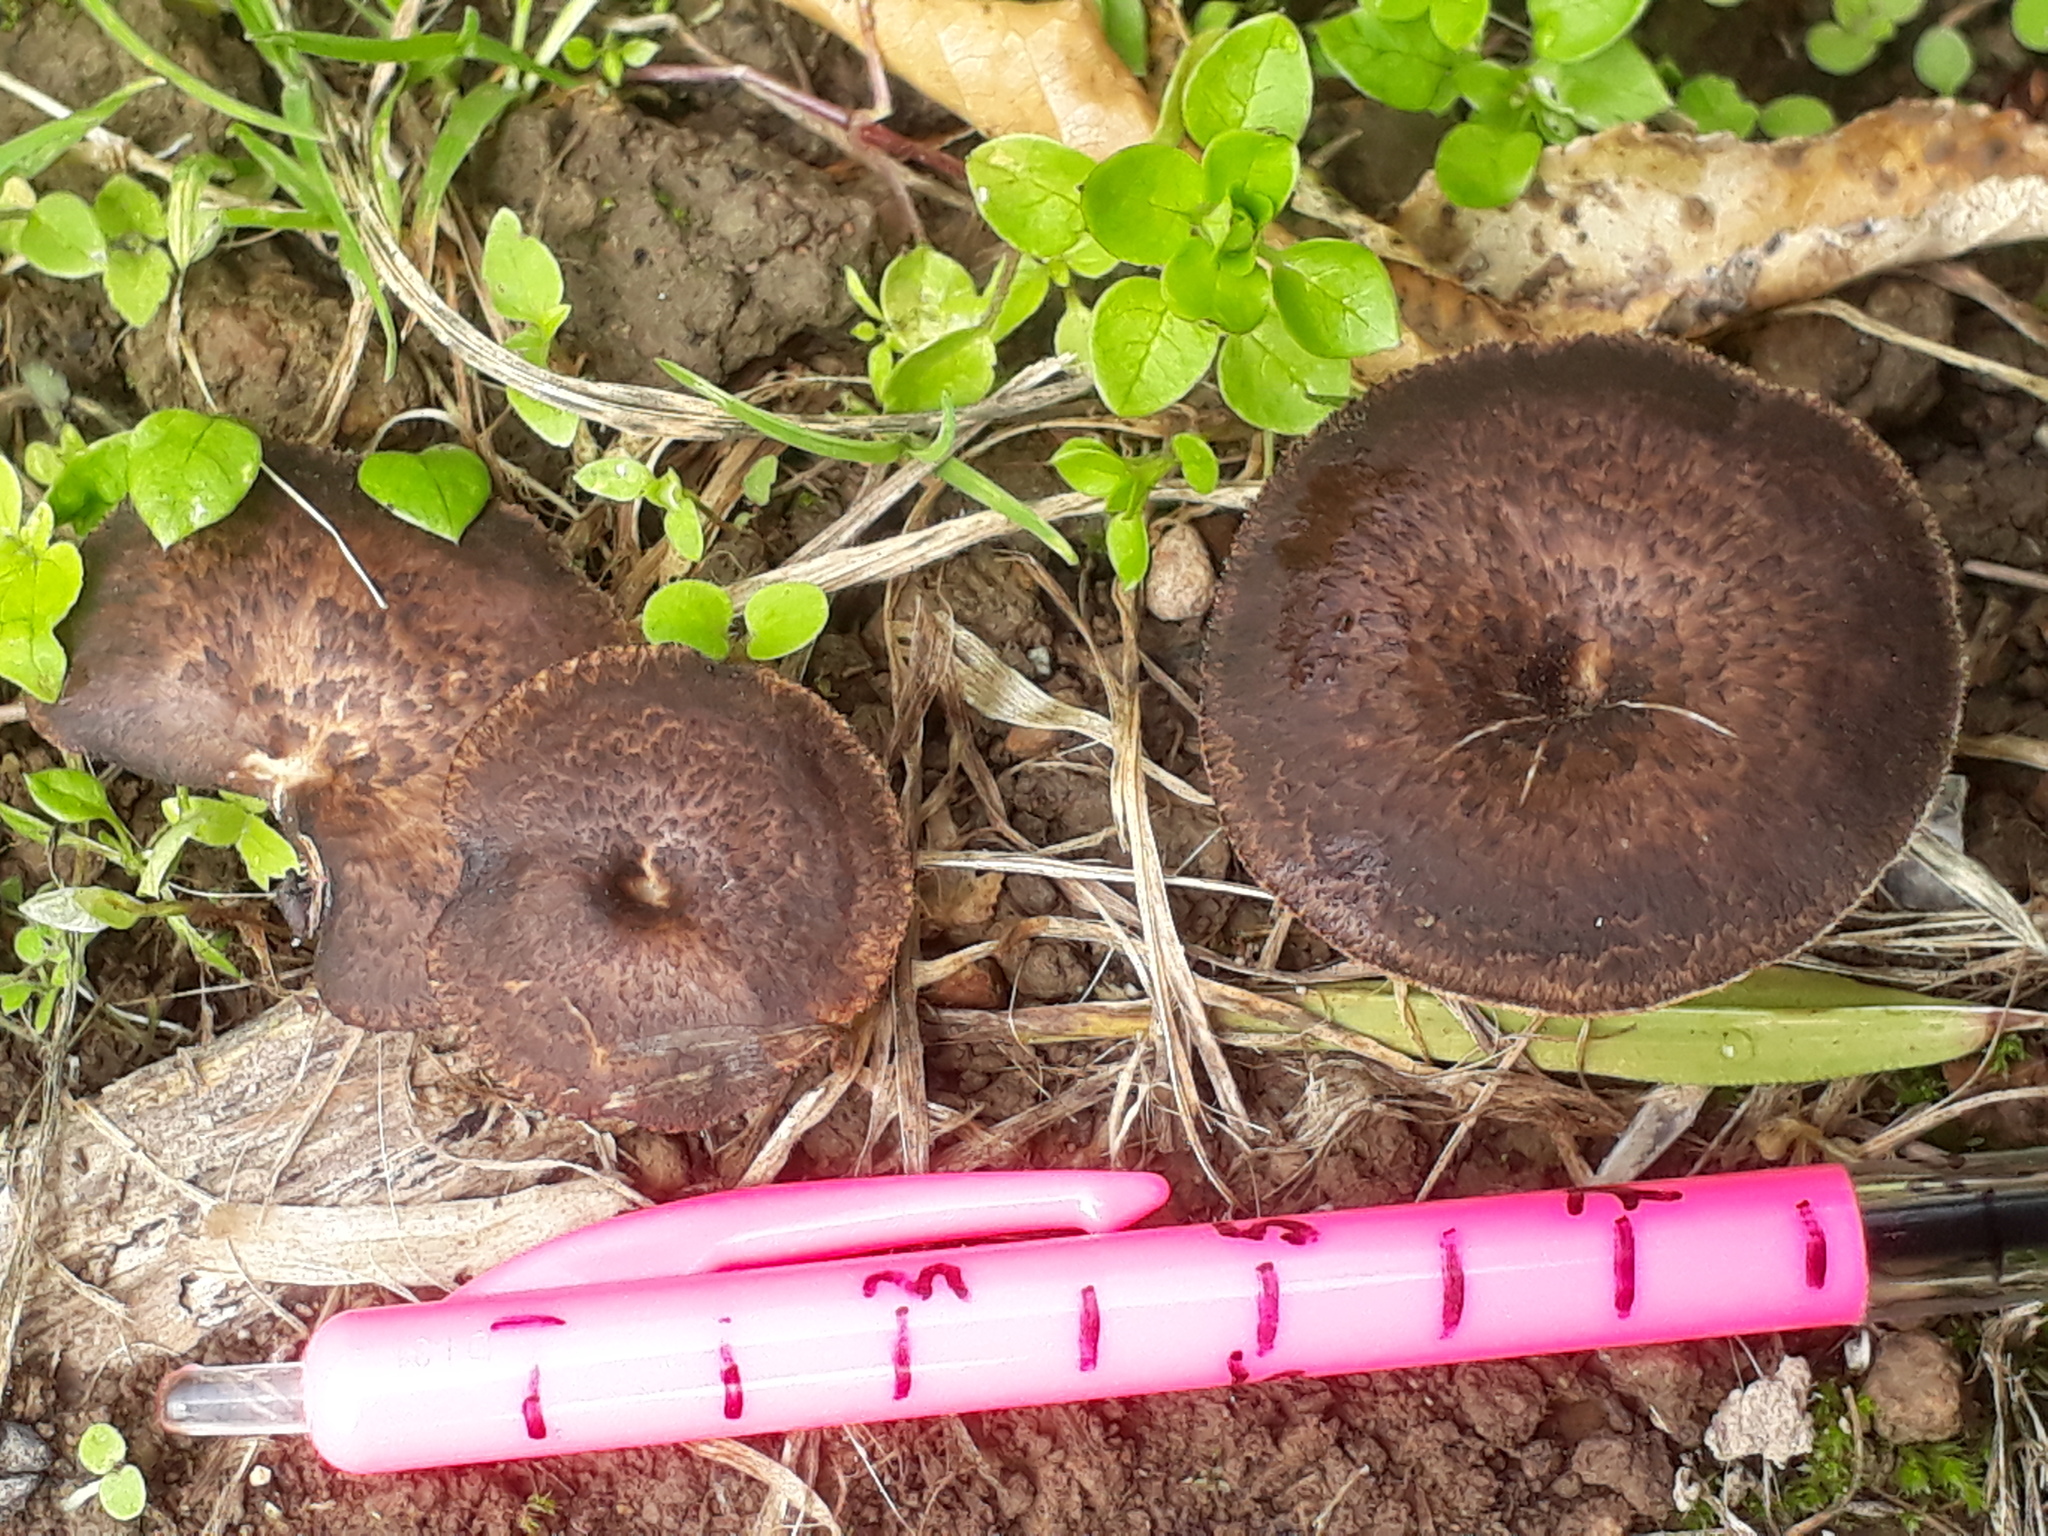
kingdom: Fungi
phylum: Basidiomycota
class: Agaricomycetes
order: Polyporales
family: Polyporaceae
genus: Lentinus
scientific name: Lentinus arcularius
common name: Spring polypore
